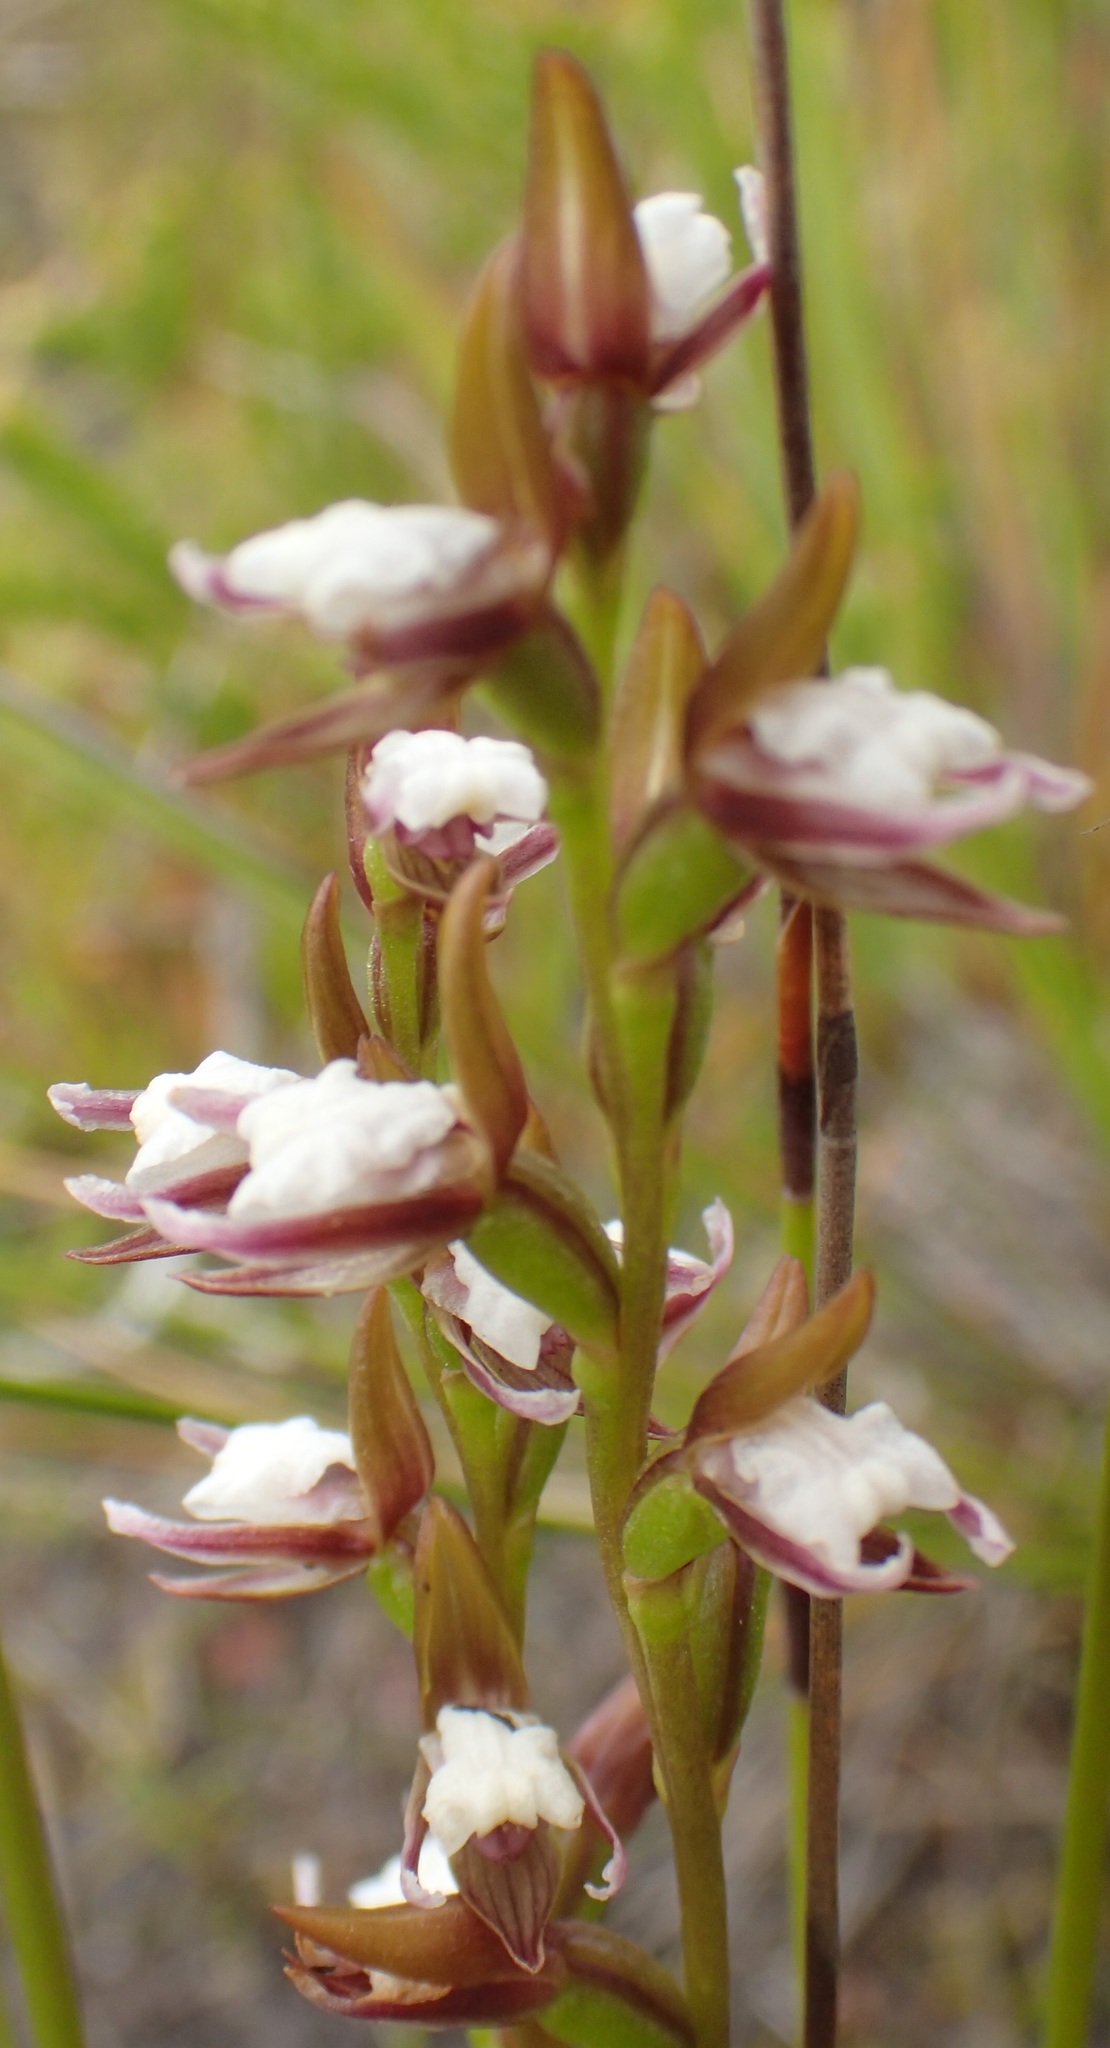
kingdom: Plantae
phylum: Tracheophyta
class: Liliopsida
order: Asparagales
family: Orchidaceae
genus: Prasophyllum
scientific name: Prasophyllum brevilabre
